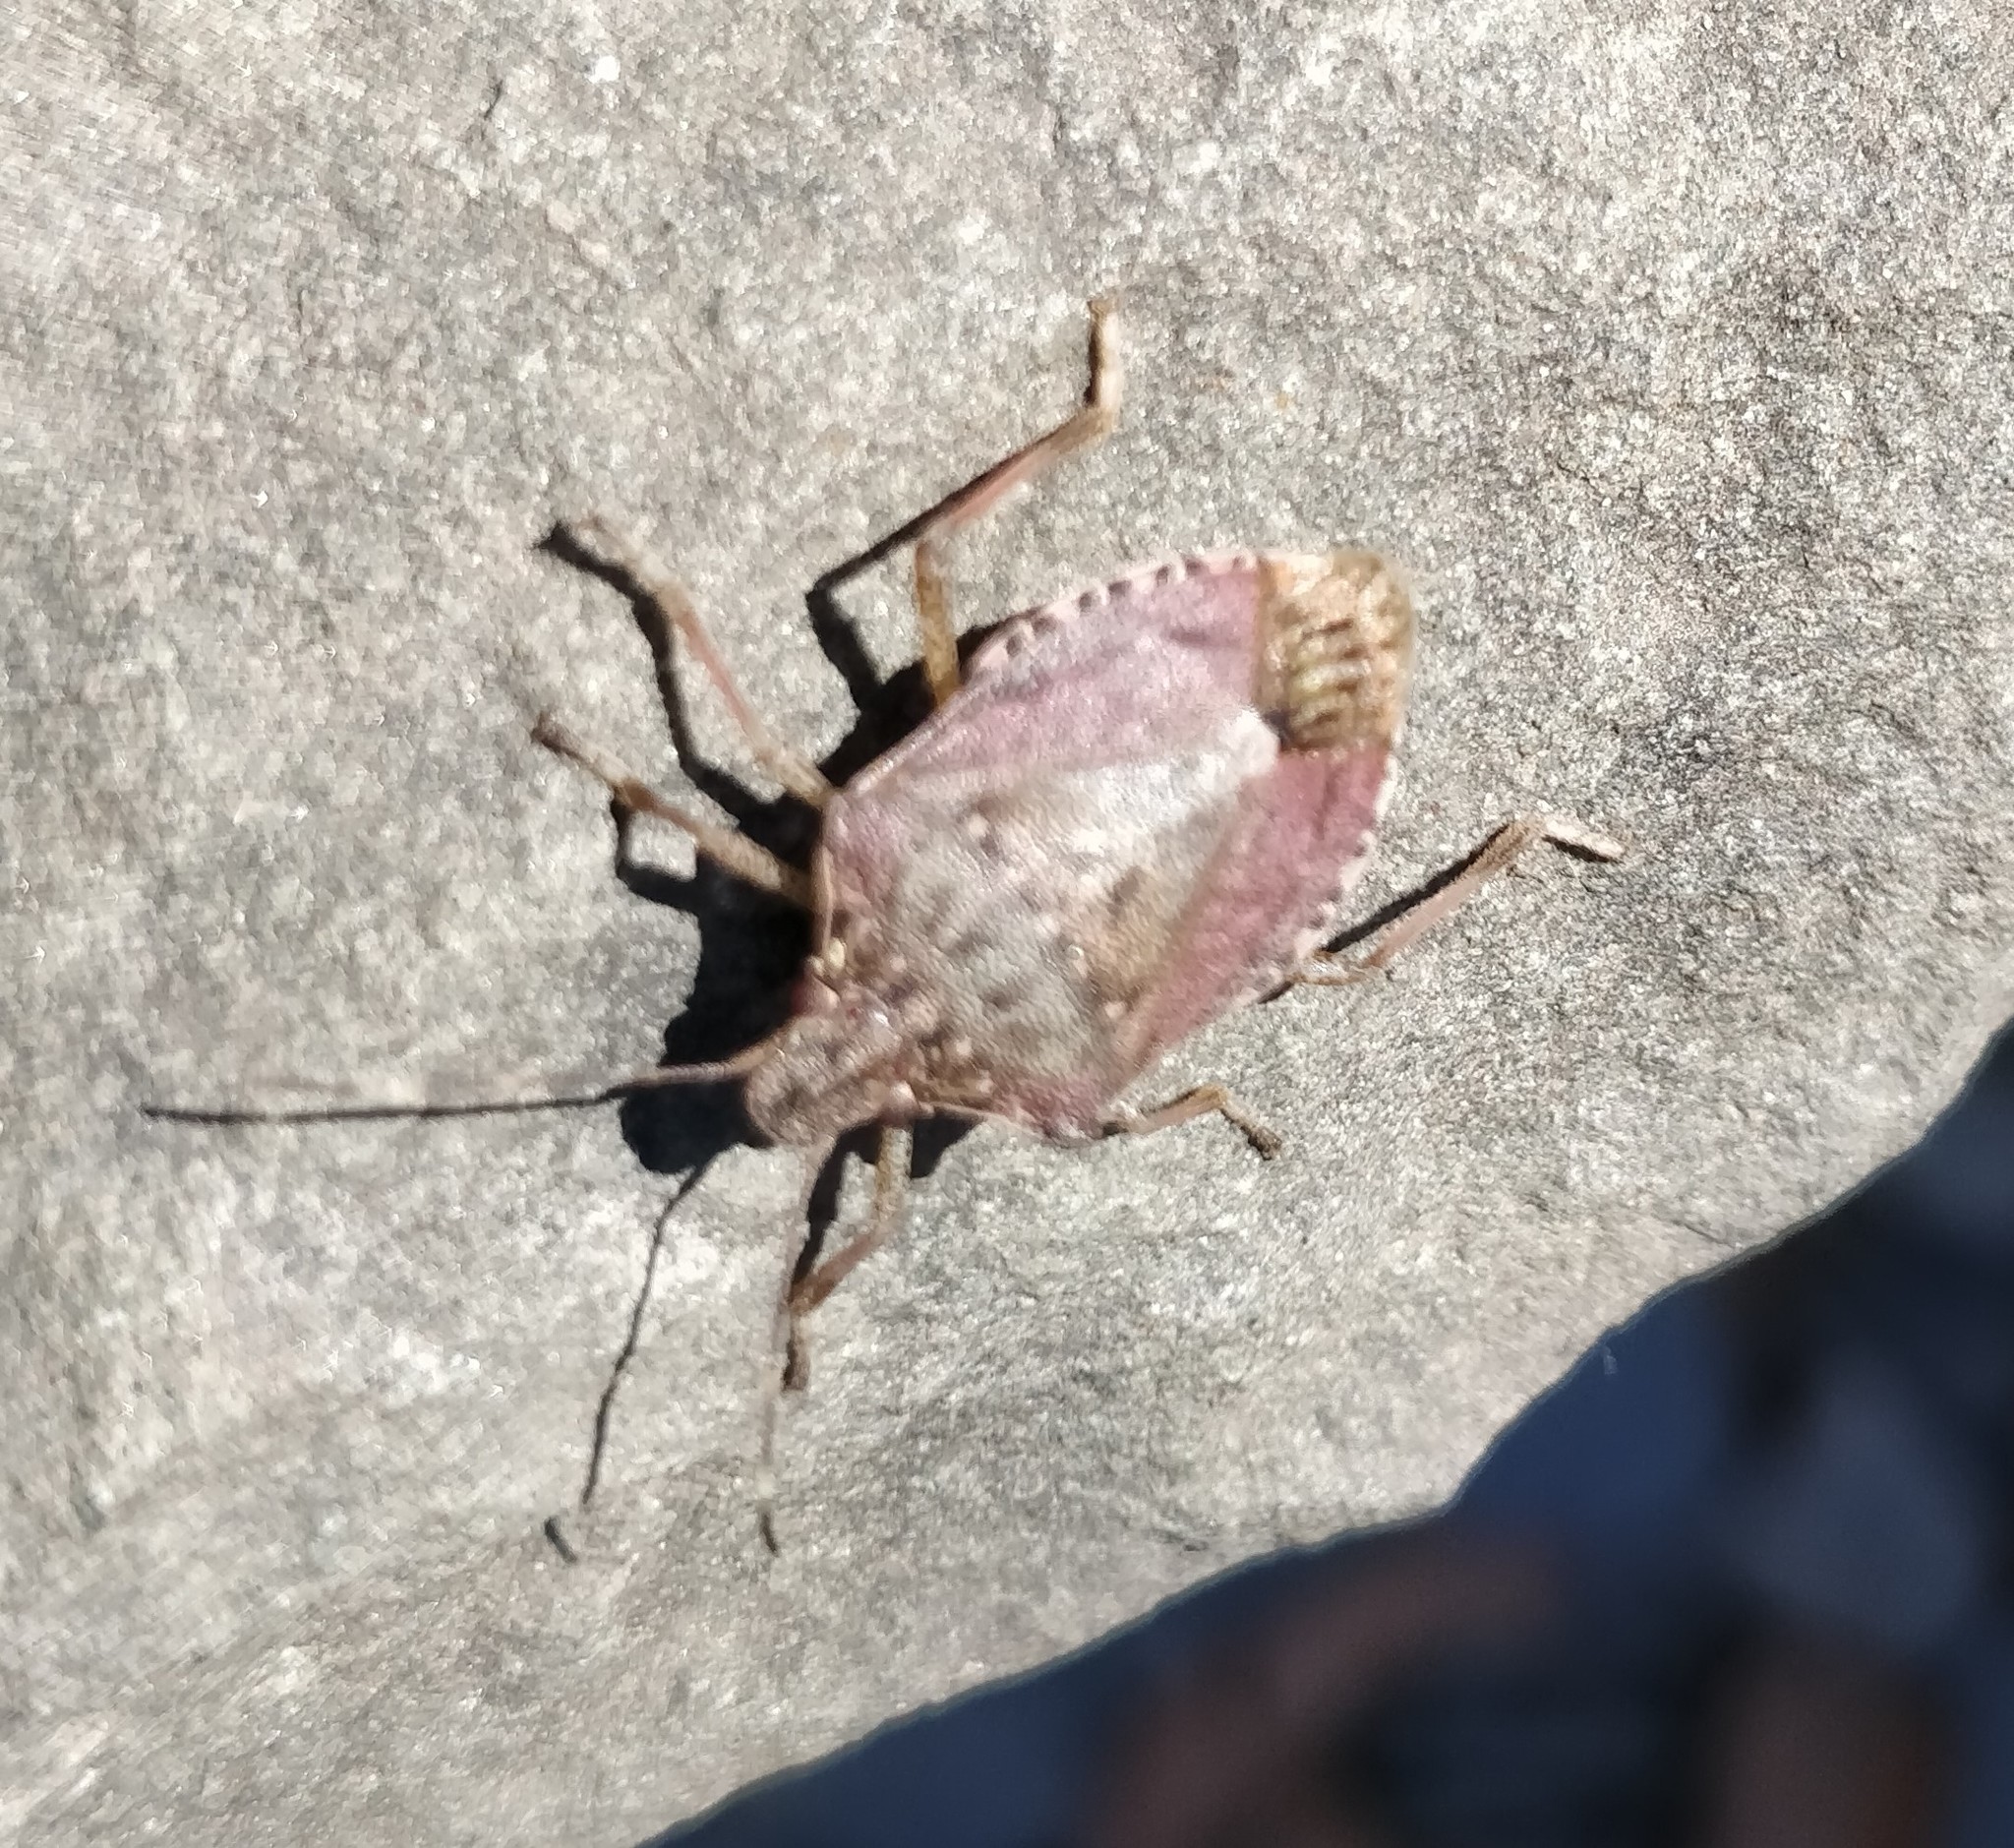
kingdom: Animalia
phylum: Arthropoda
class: Insecta
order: Hemiptera
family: Pentatomidae
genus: Halyomorpha
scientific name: Halyomorpha halys
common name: Brown marmorated stink bug
